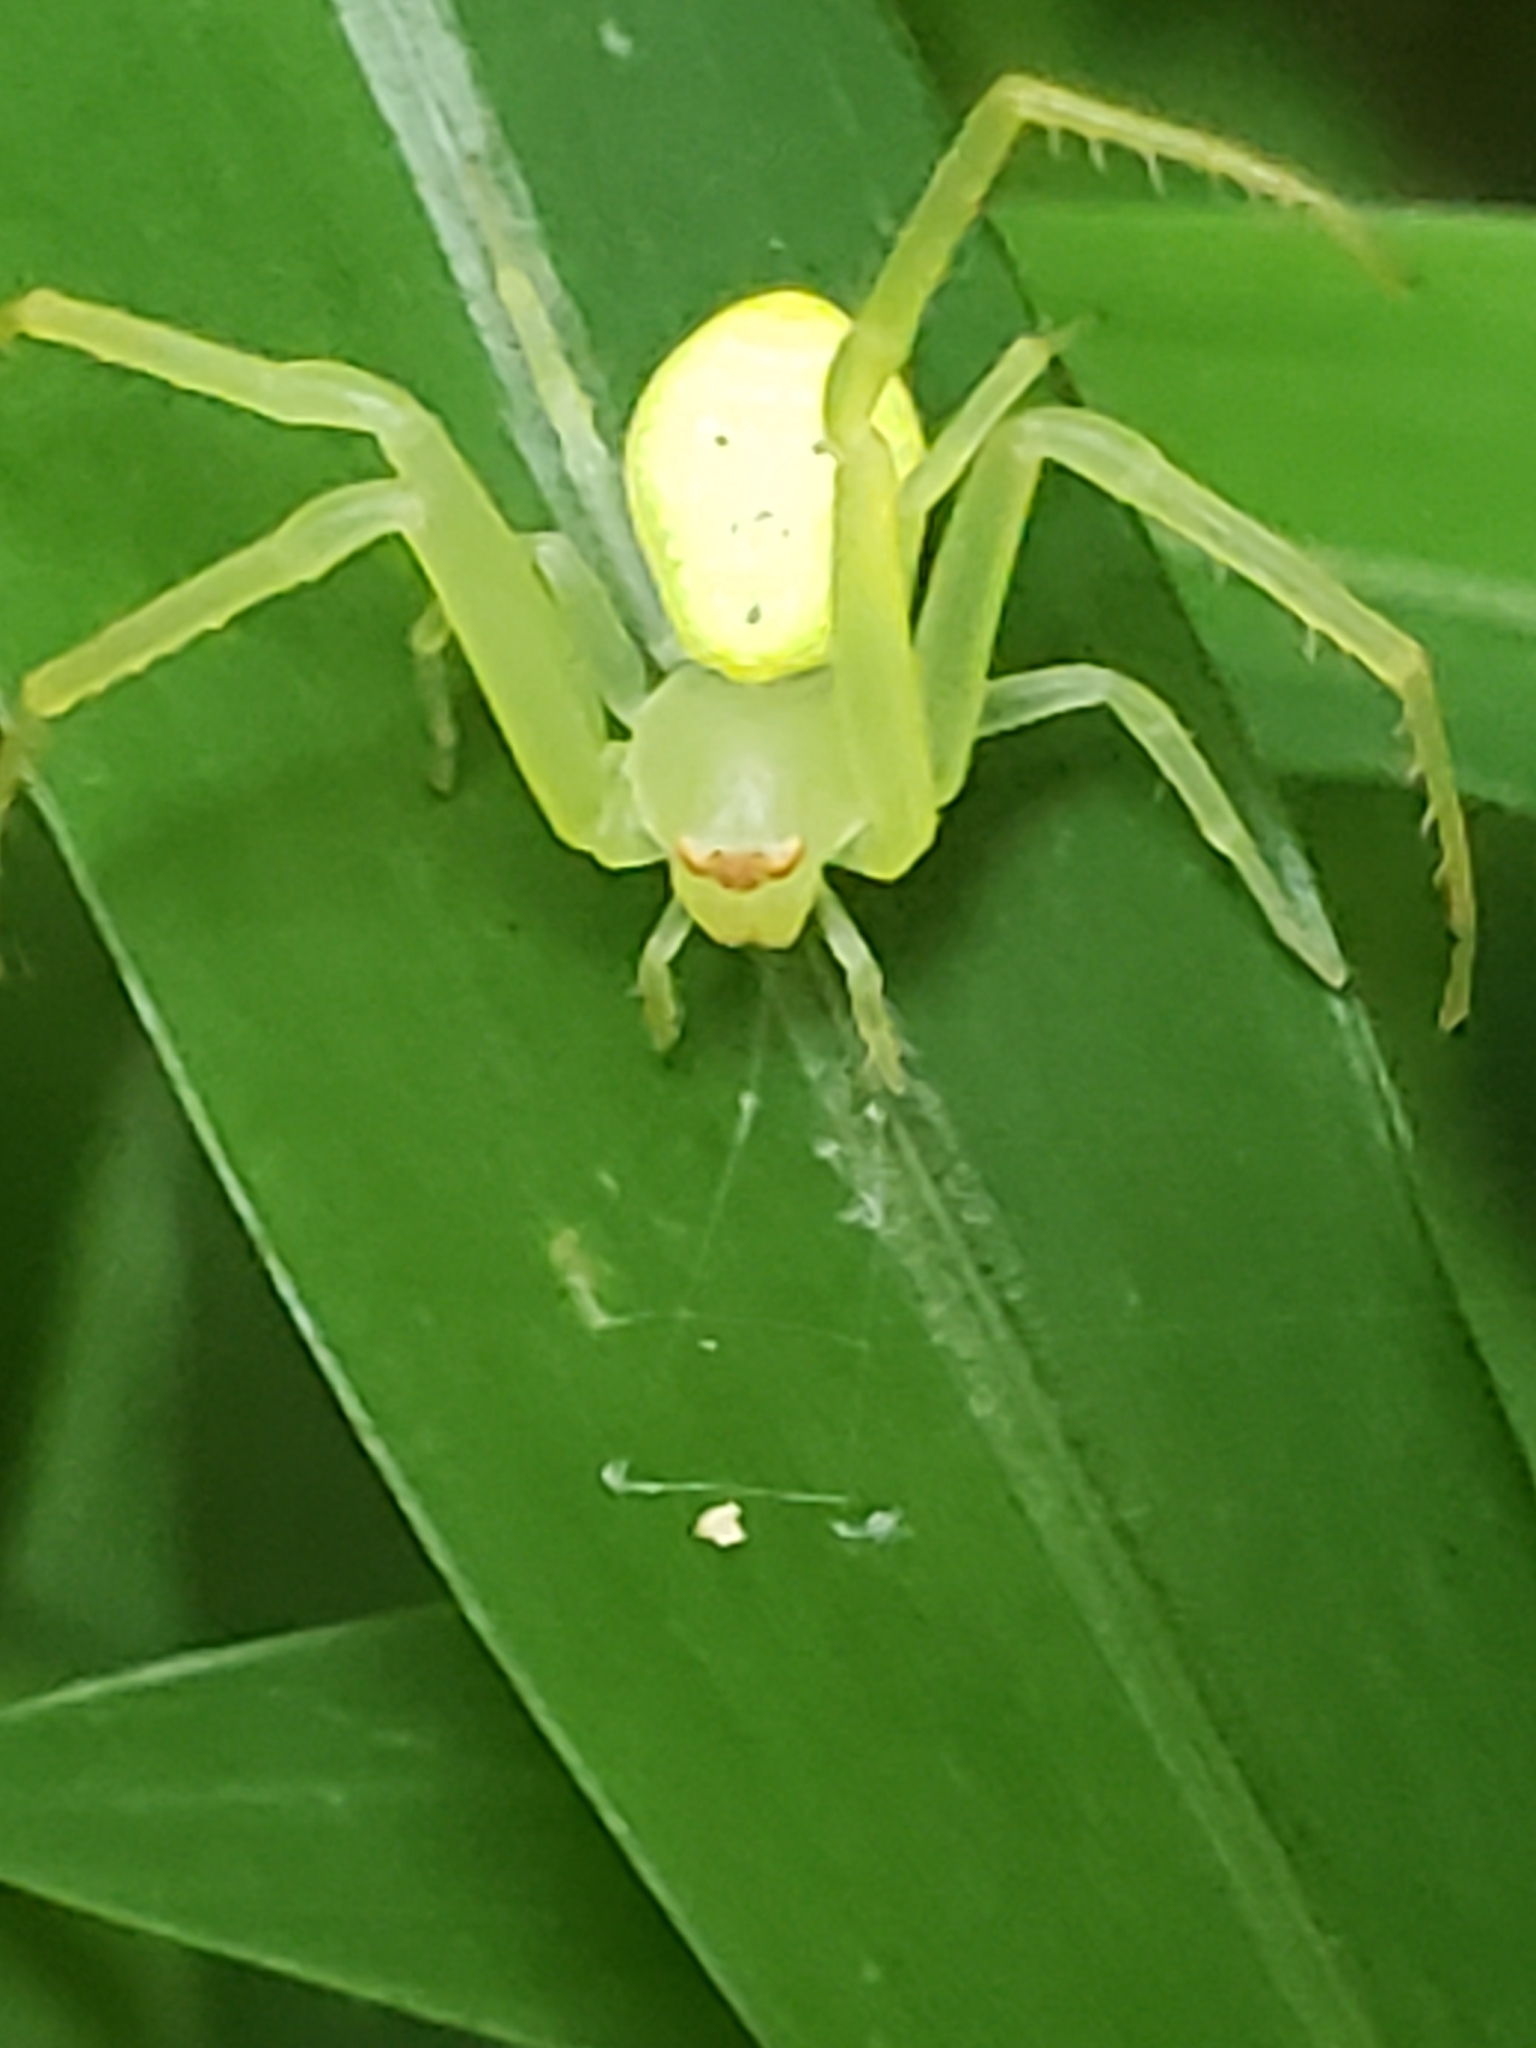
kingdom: Animalia
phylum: Arthropoda
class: Arachnida
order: Araneae
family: Thomisidae
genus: Misumessus
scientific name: Misumessus oblongus
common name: American green crab spider
